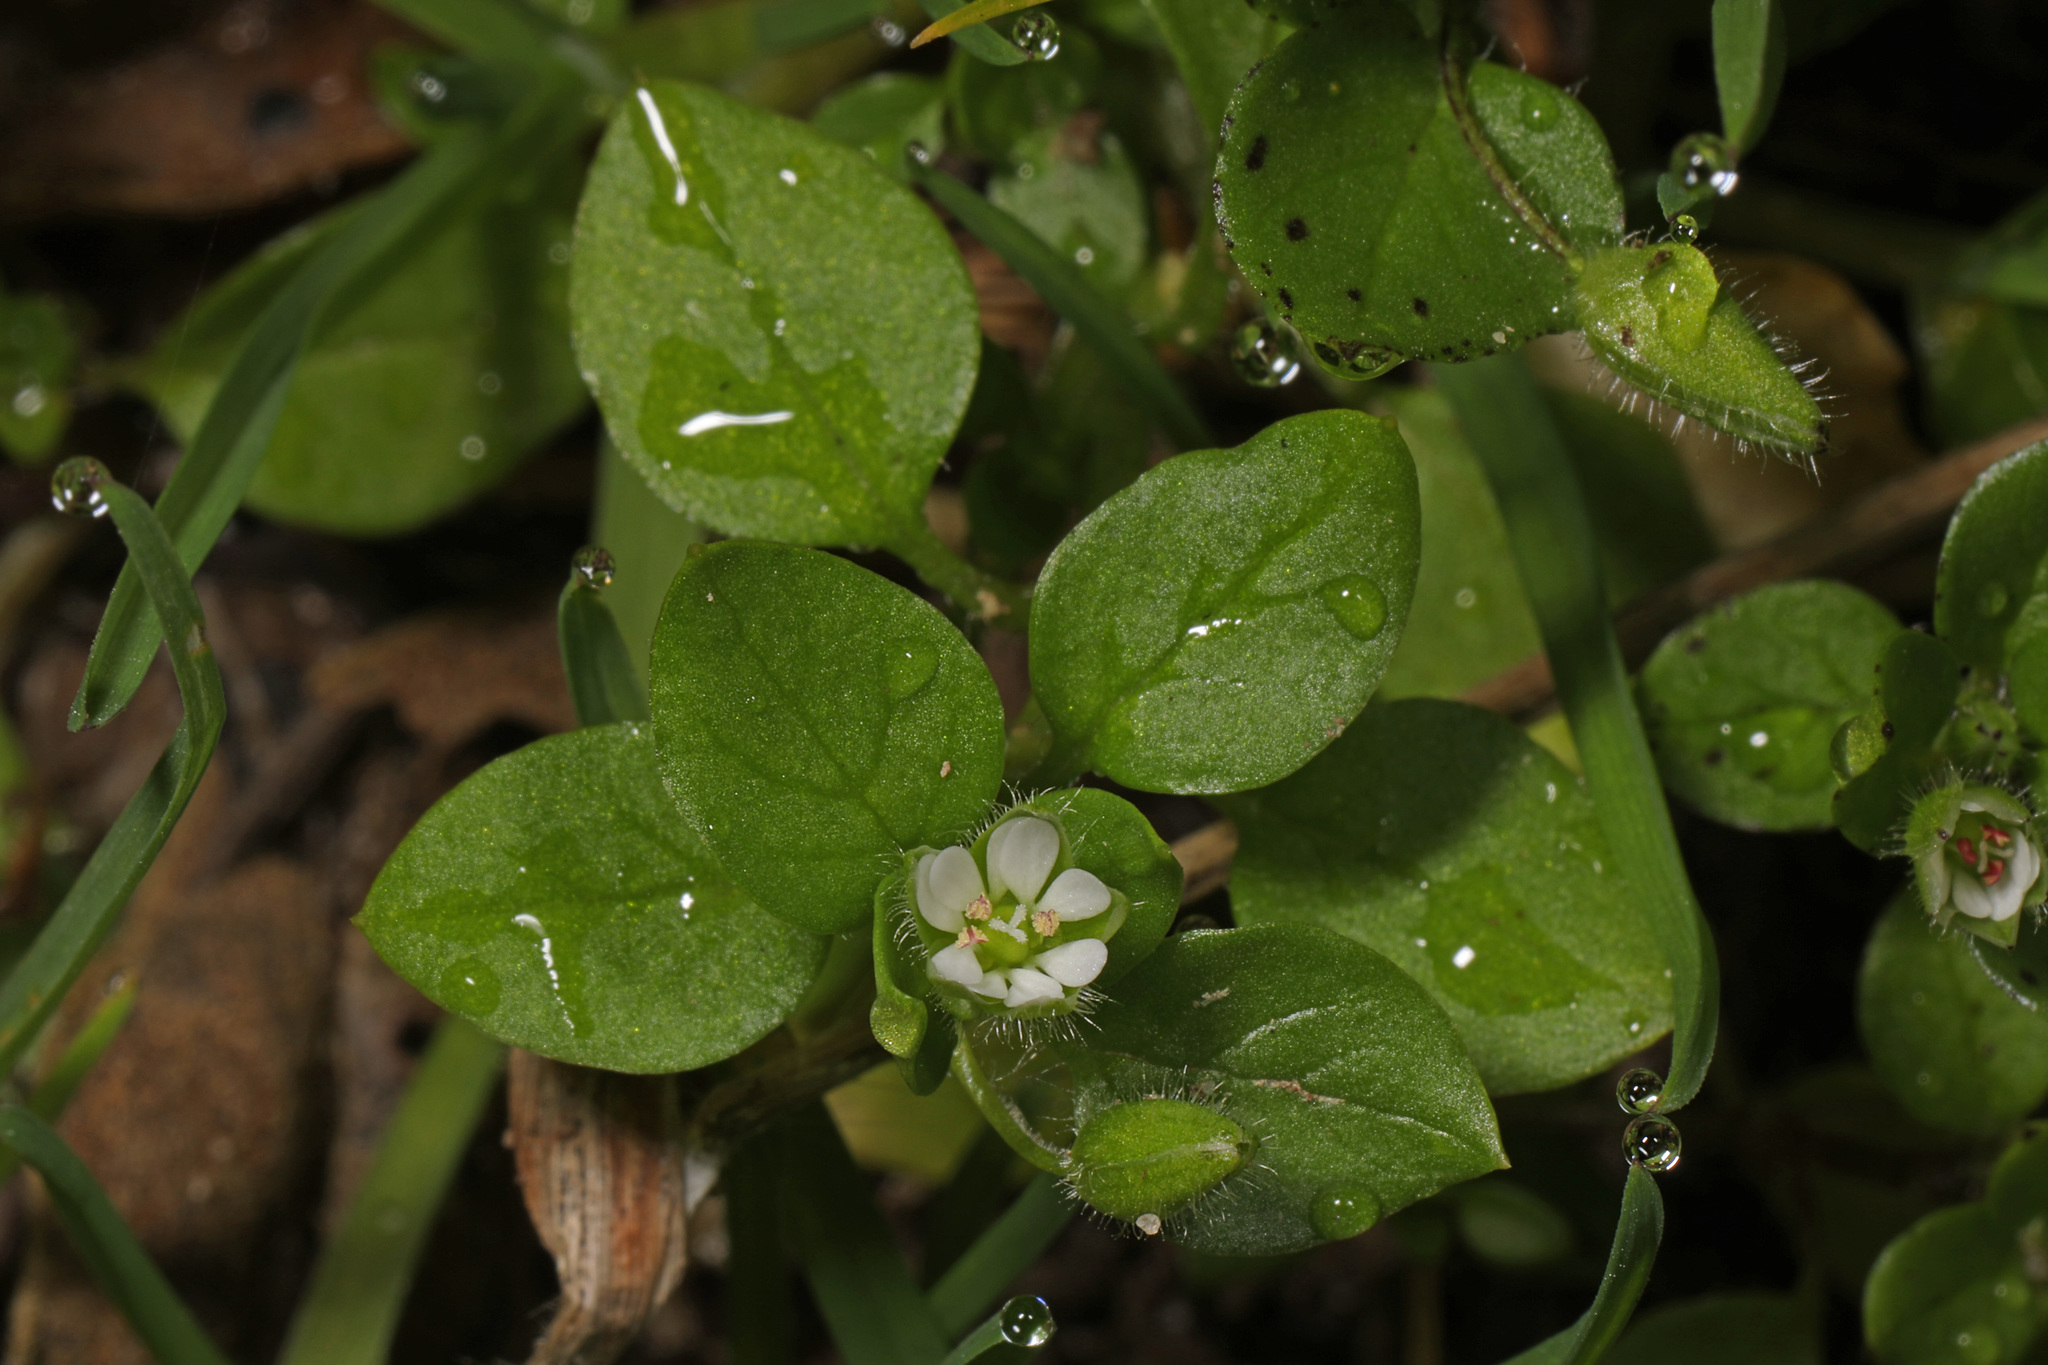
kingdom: Plantae
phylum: Tracheophyta
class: Magnoliopsida
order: Caryophyllales
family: Caryophyllaceae
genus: Stellaria
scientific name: Stellaria media
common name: Common chickweed
